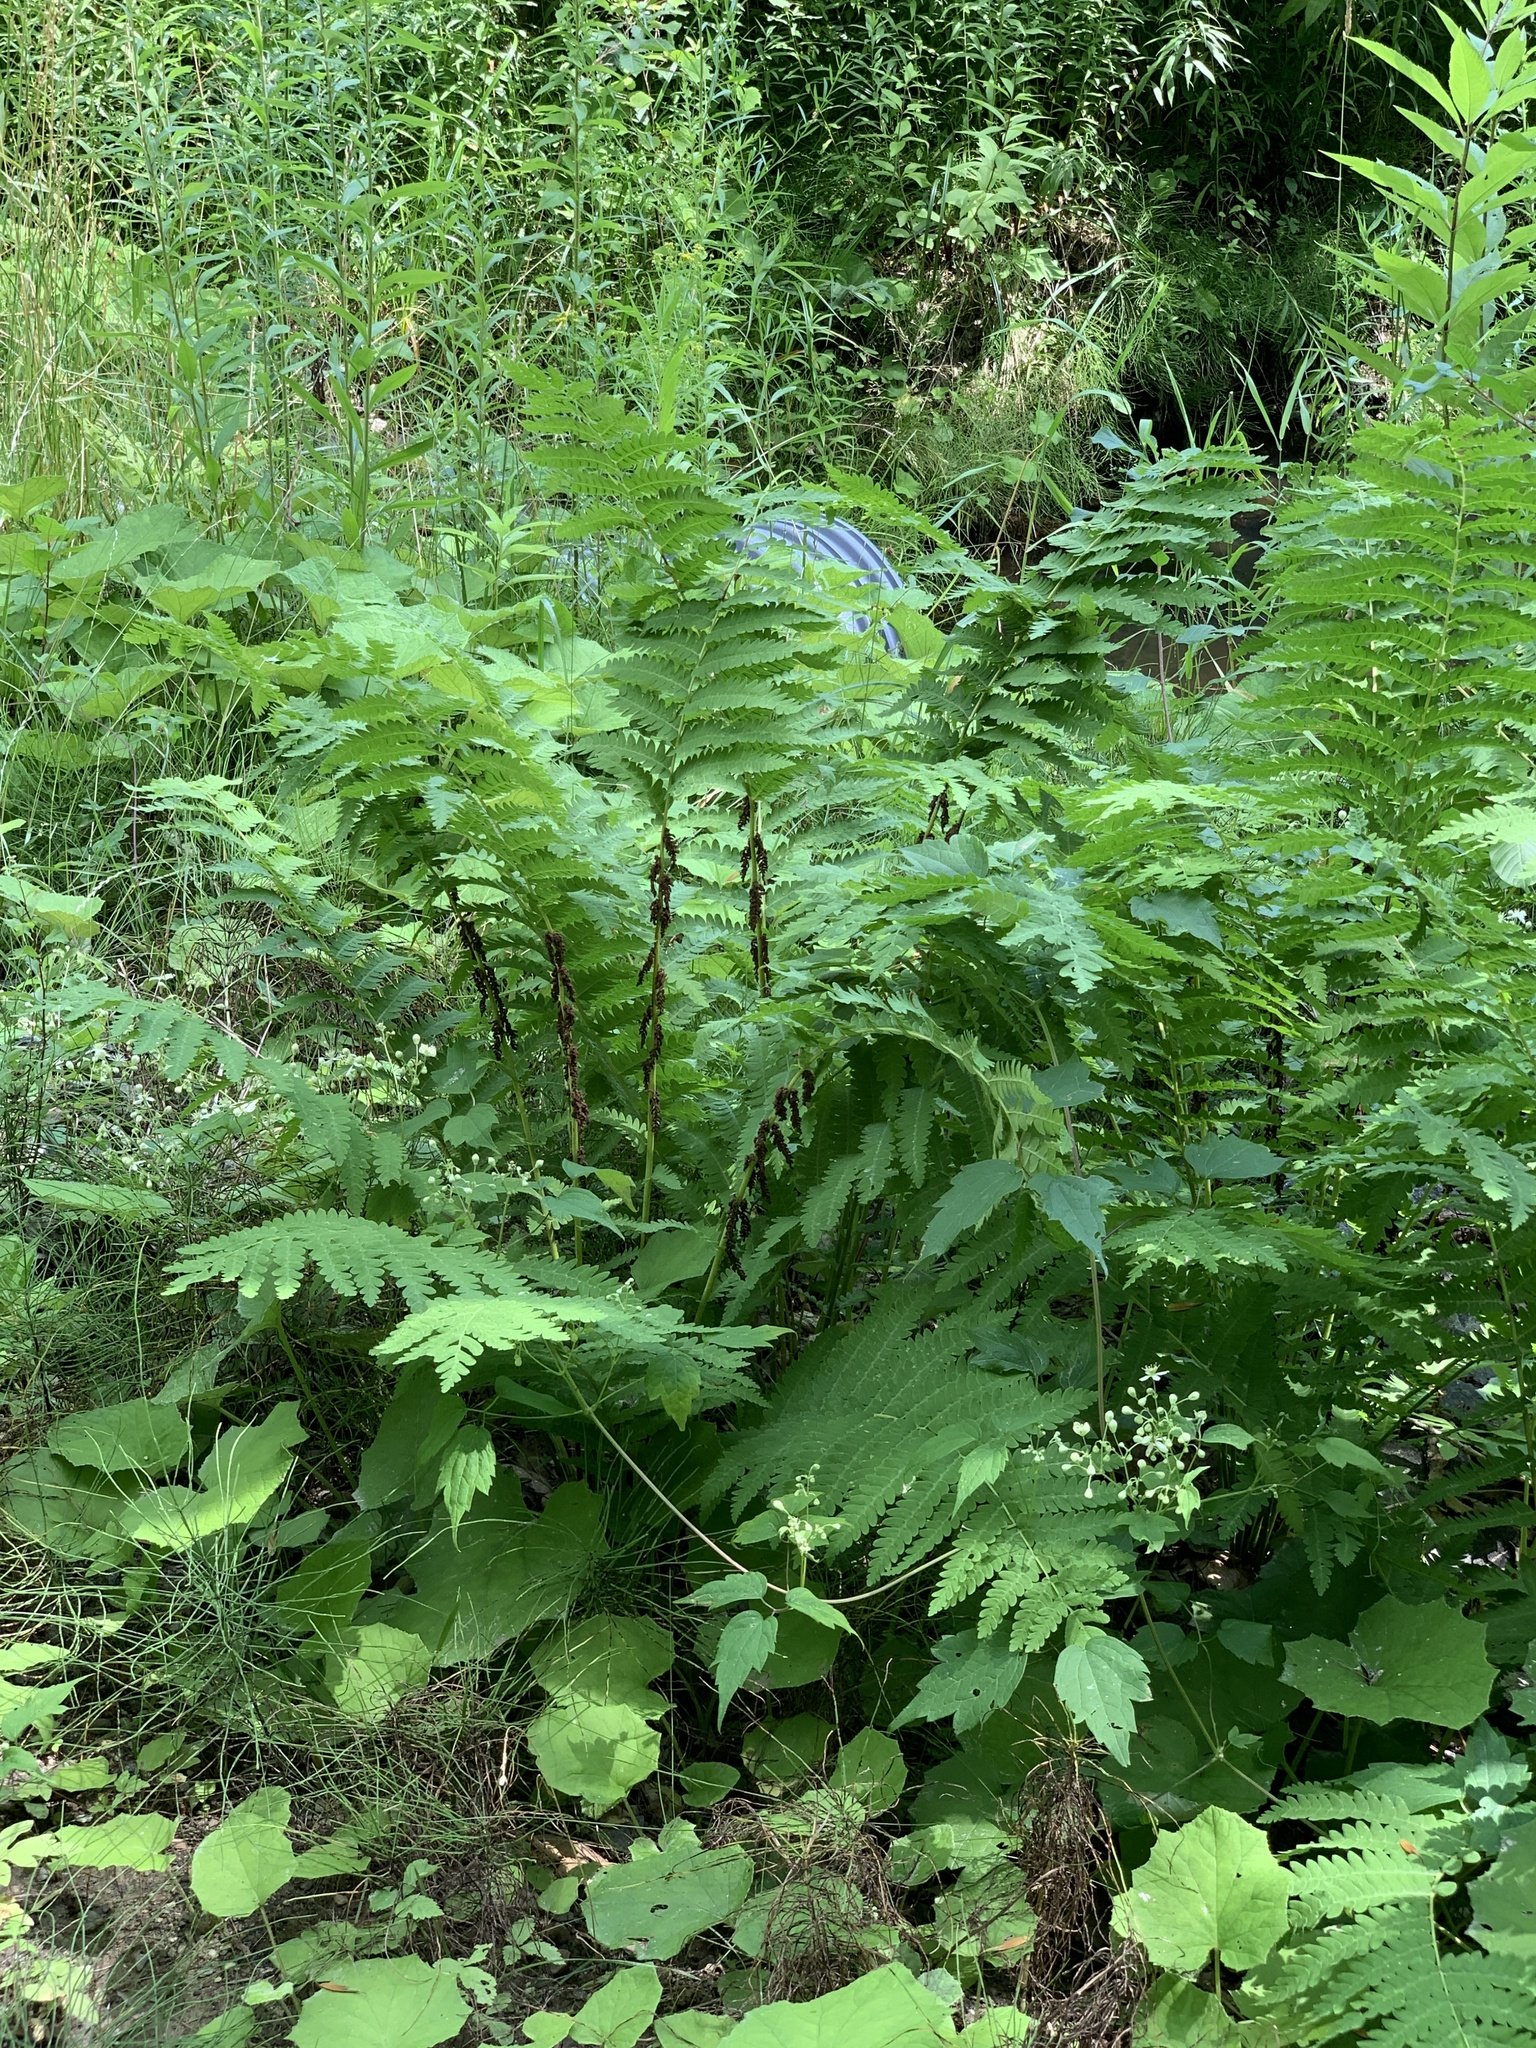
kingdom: Plantae
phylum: Tracheophyta
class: Polypodiopsida
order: Osmundales
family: Osmundaceae
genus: Claytosmunda
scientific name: Claytosmunda claytoniana
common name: Clayton's fern
